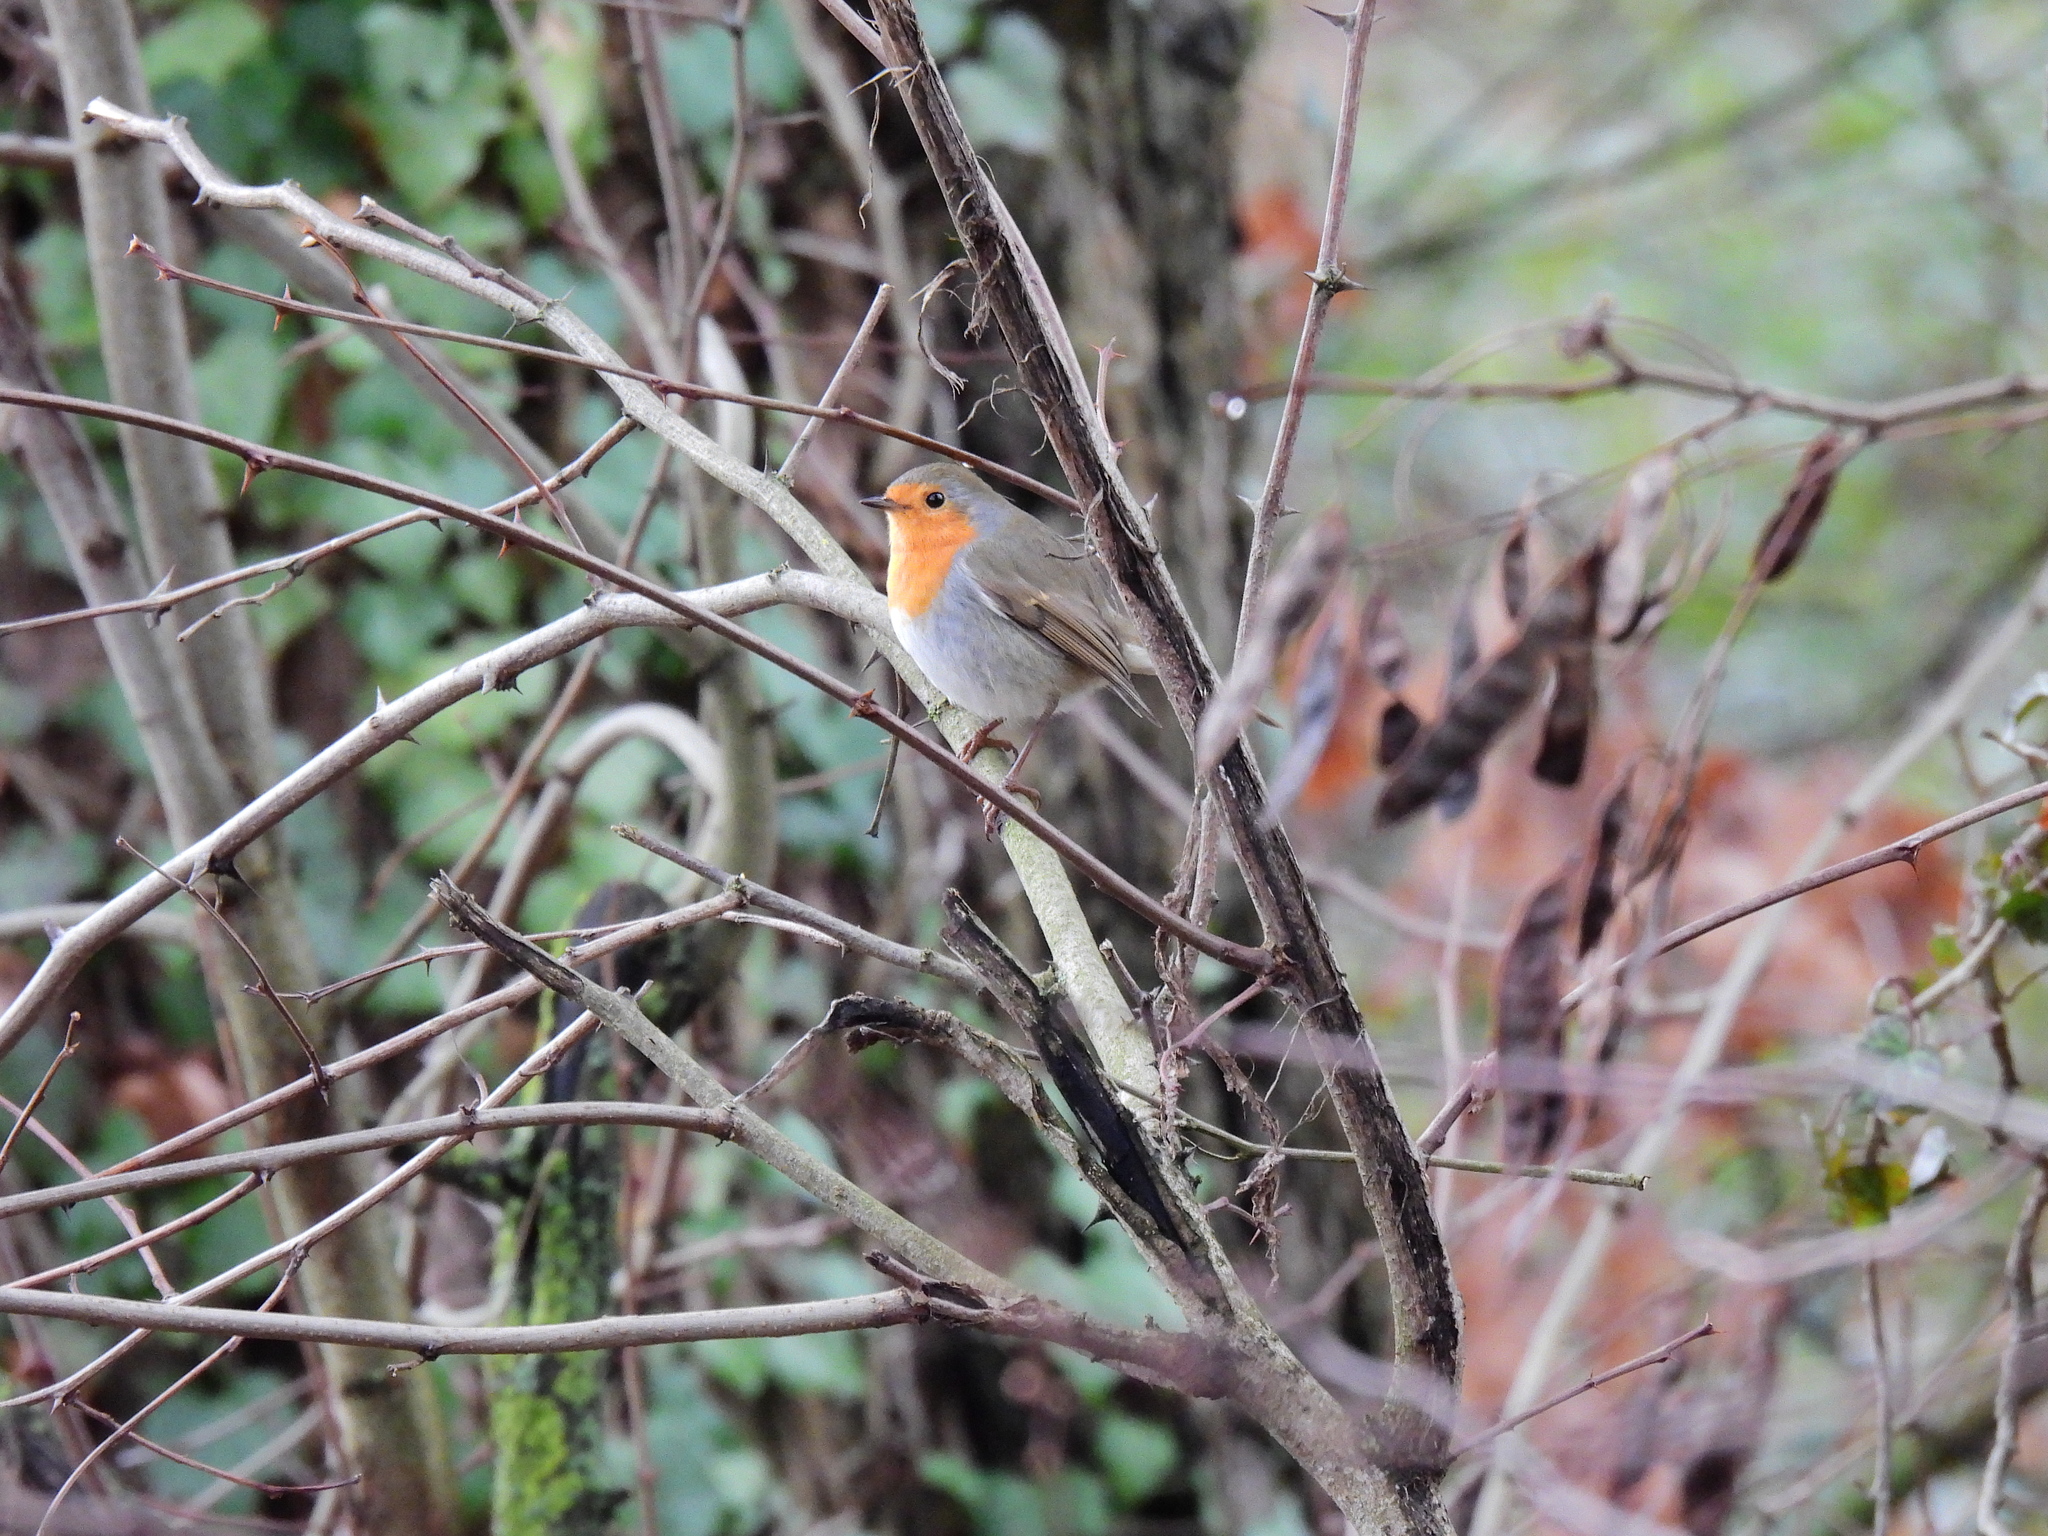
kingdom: Animalia
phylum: Chordata
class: Aves
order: Passeriformes
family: Muscicapidae
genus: Erithacus
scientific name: Erithacus rubecula
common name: European robin
